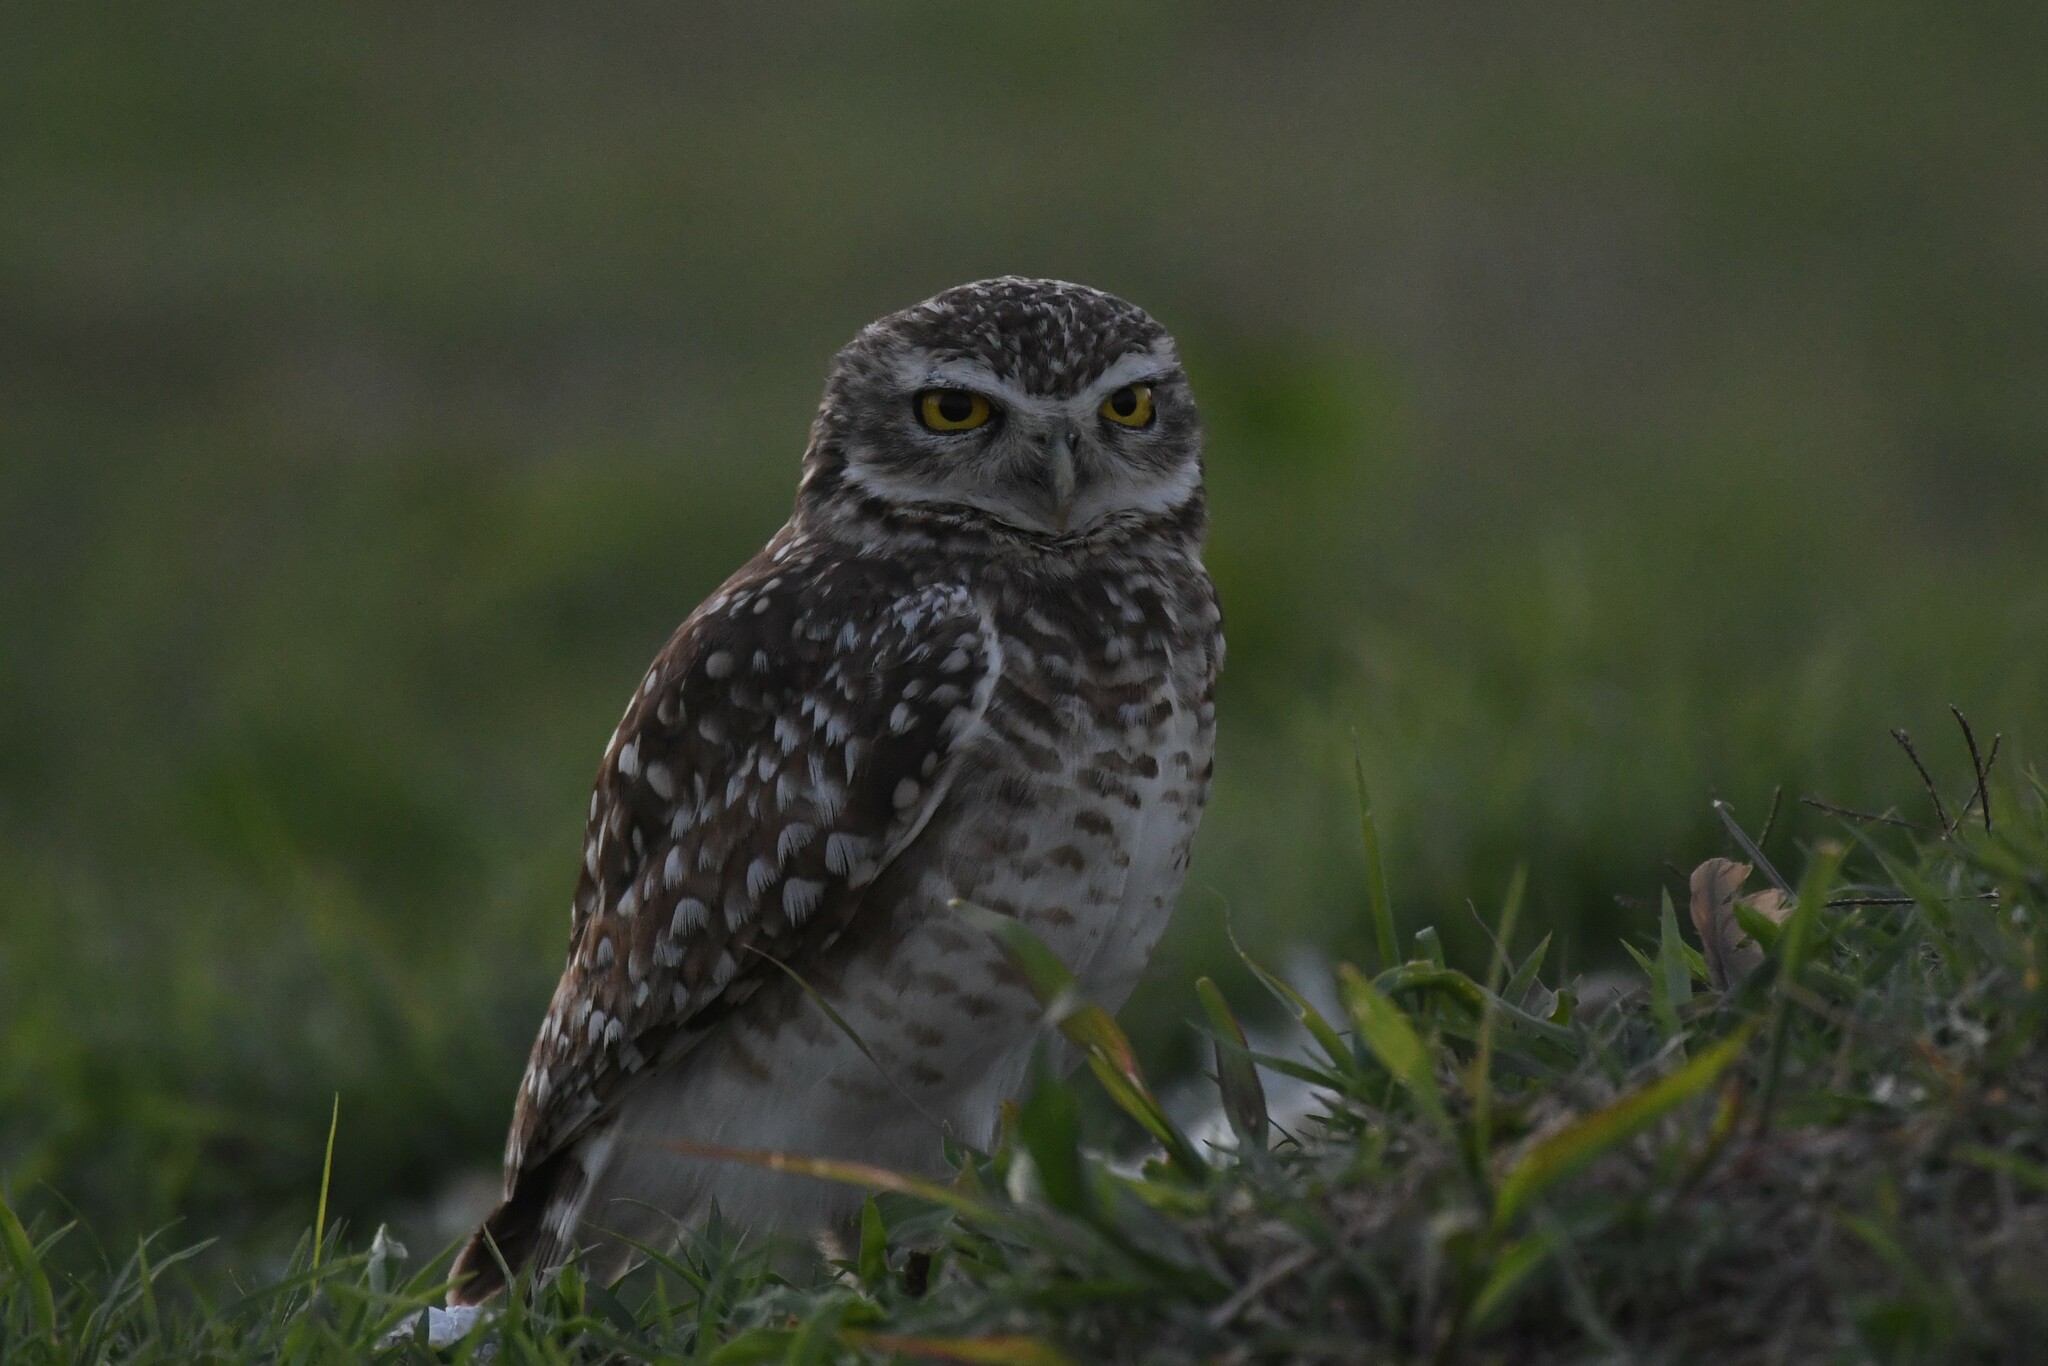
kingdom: Animalia
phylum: Chordata
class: Aves
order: Strigiformes
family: Strigidae
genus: Athene
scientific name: Athene cunicularia
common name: Burrowing owl
